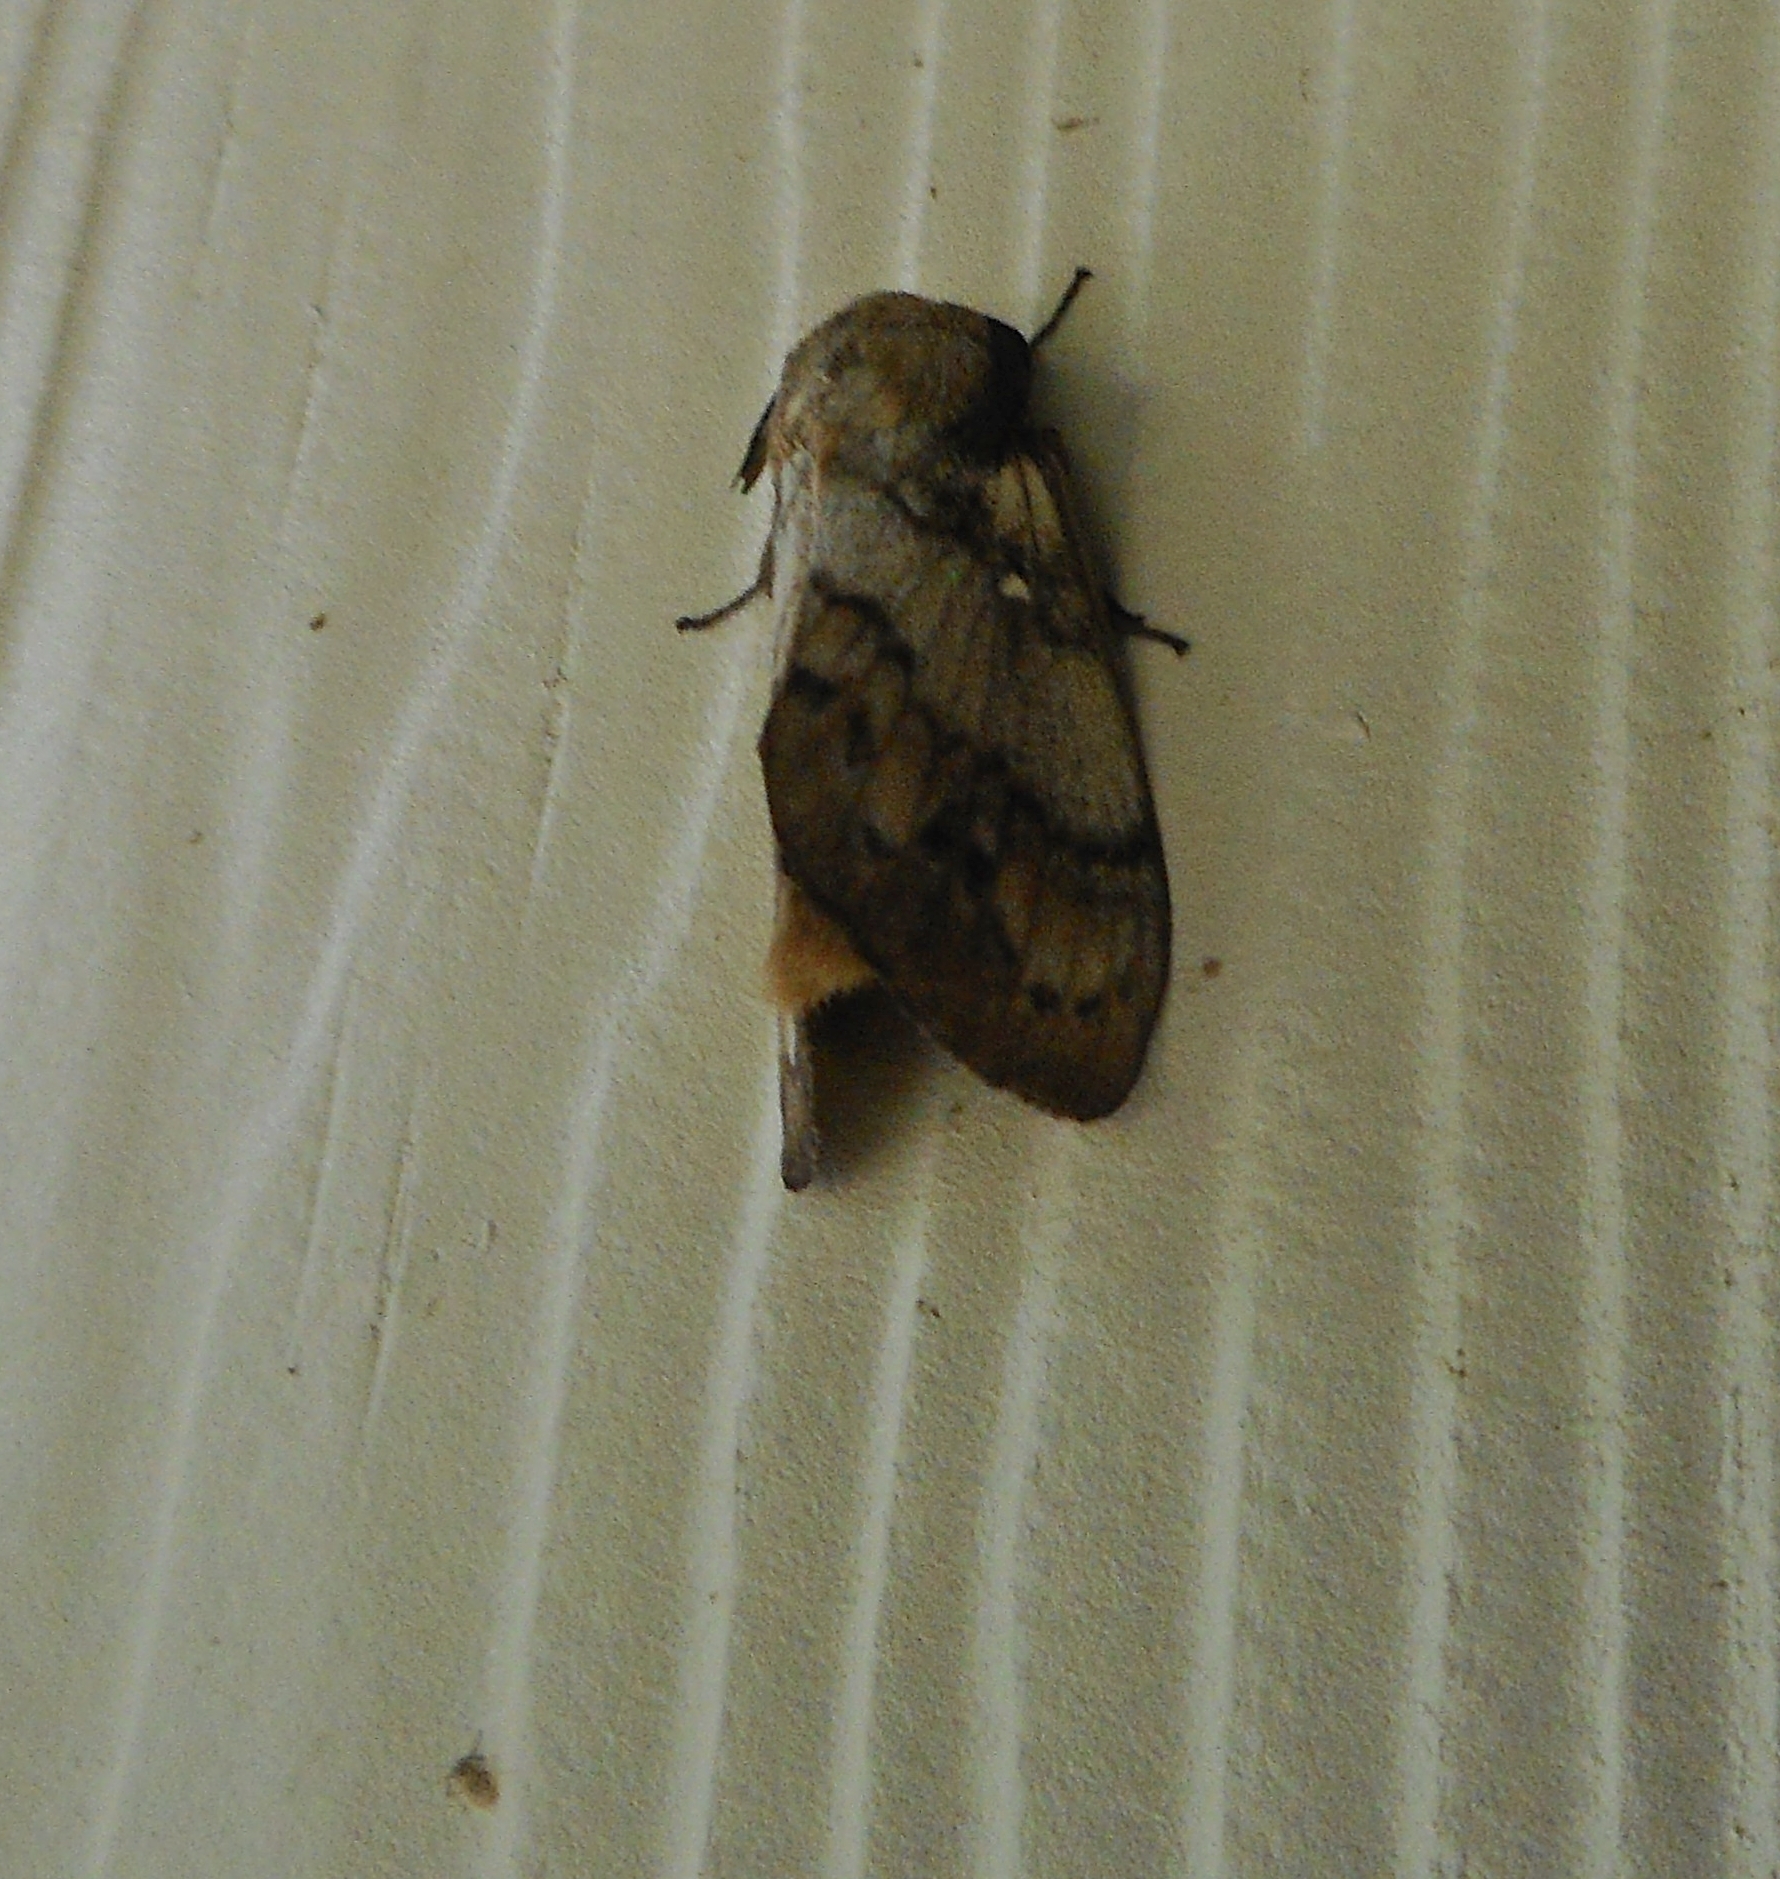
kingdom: Animalia
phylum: Arthropoda
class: Insecta
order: Lepidoptera
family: Lasiocampidae
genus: Dendrolimus
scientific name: Dendrolimus superans
